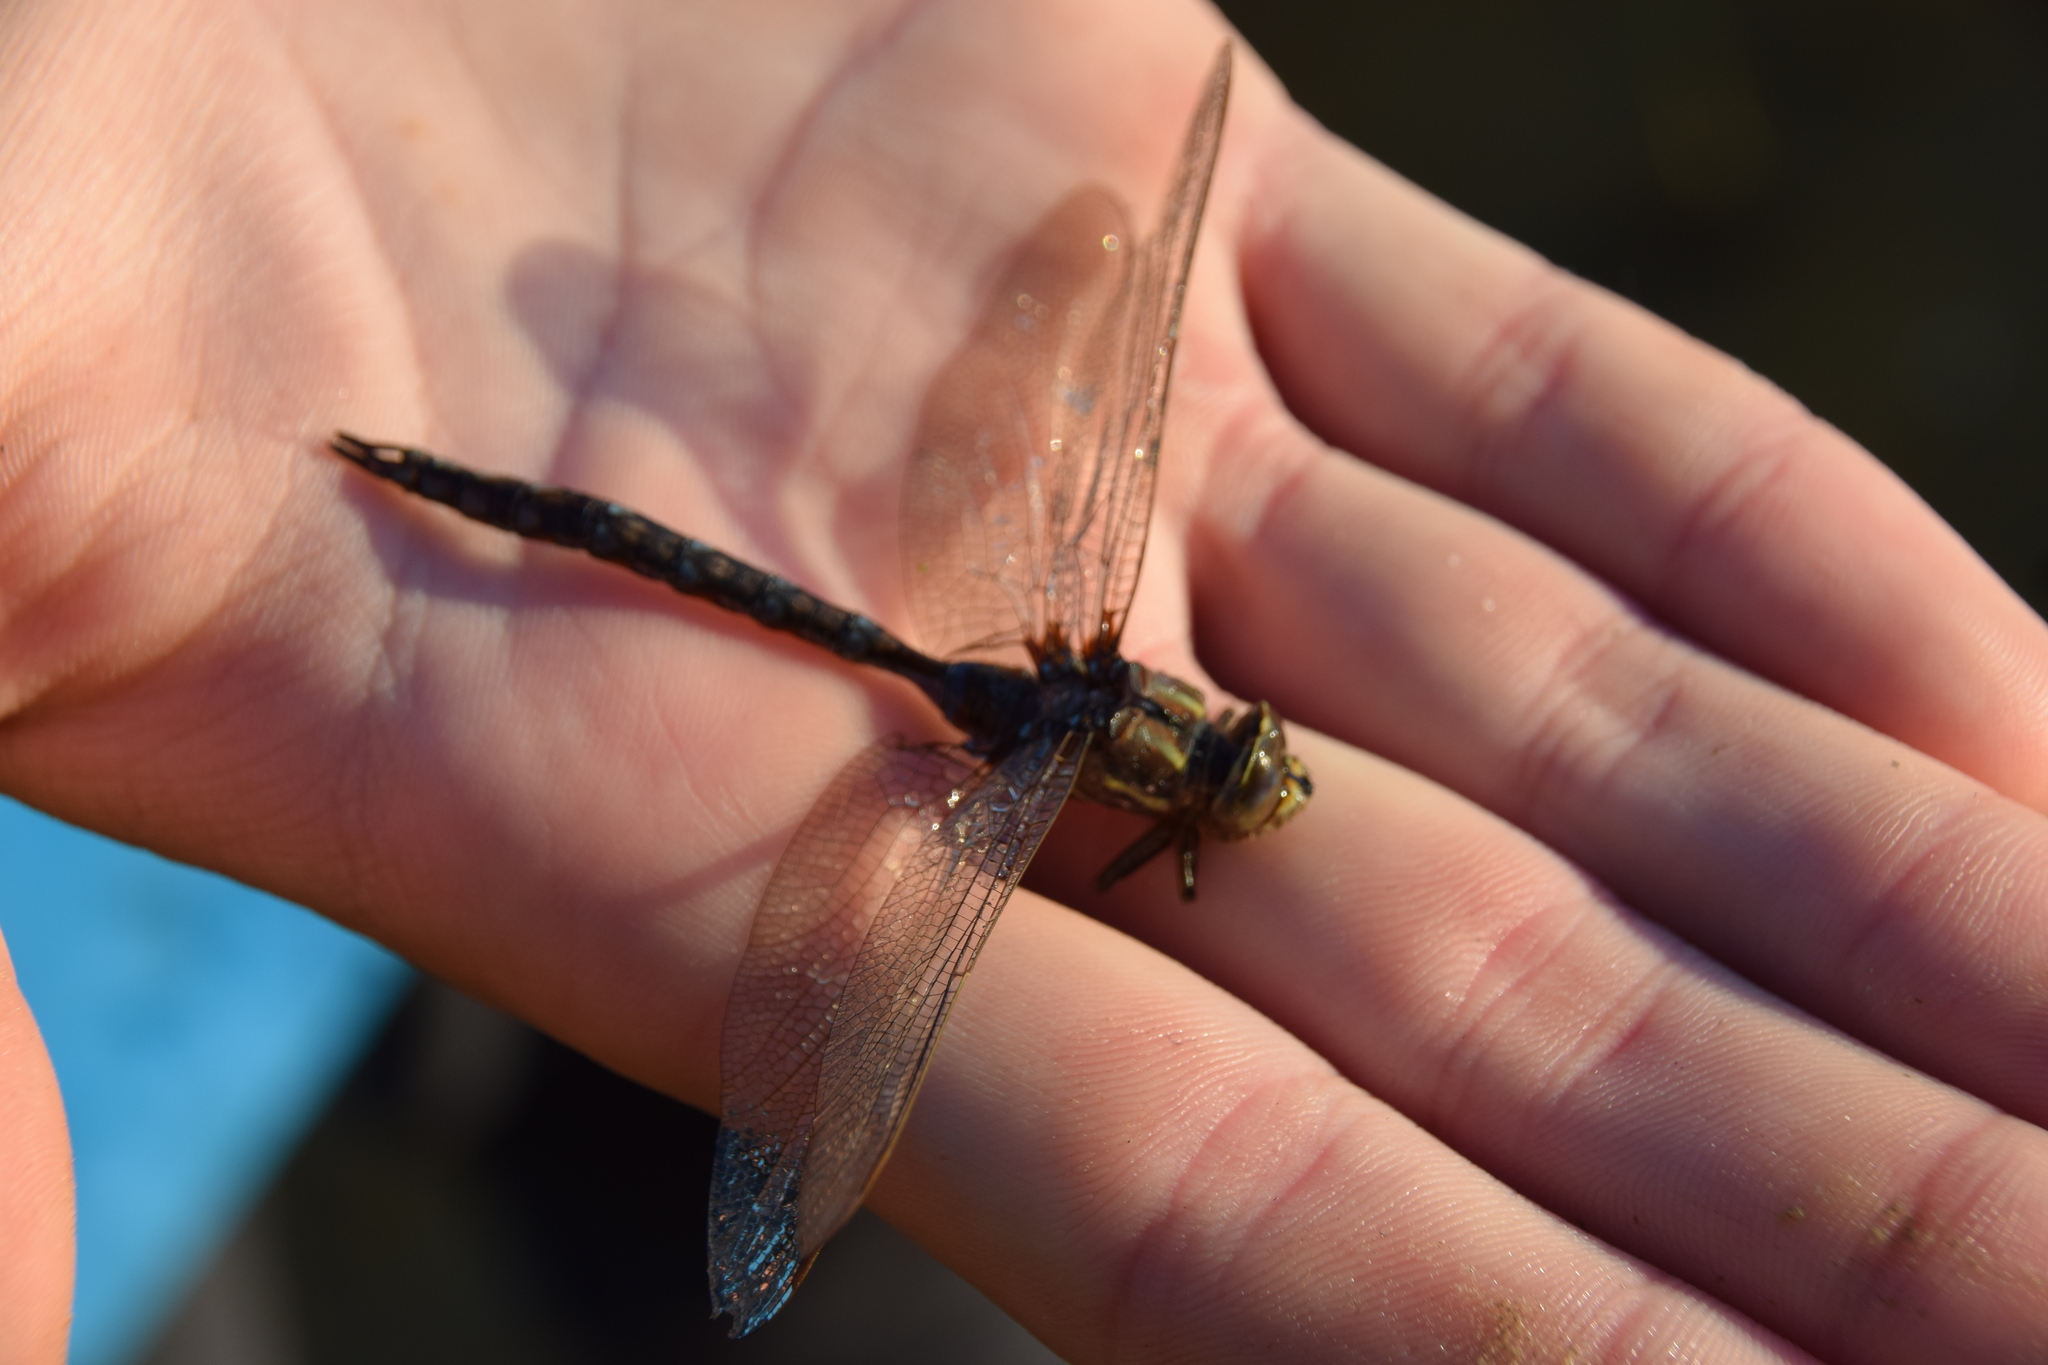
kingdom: Animalia
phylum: Arthropoda
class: Insecta
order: Odonata
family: Aeshnidae
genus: Basiaeschna
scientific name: Basiaeschna janata
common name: Springtime darner
